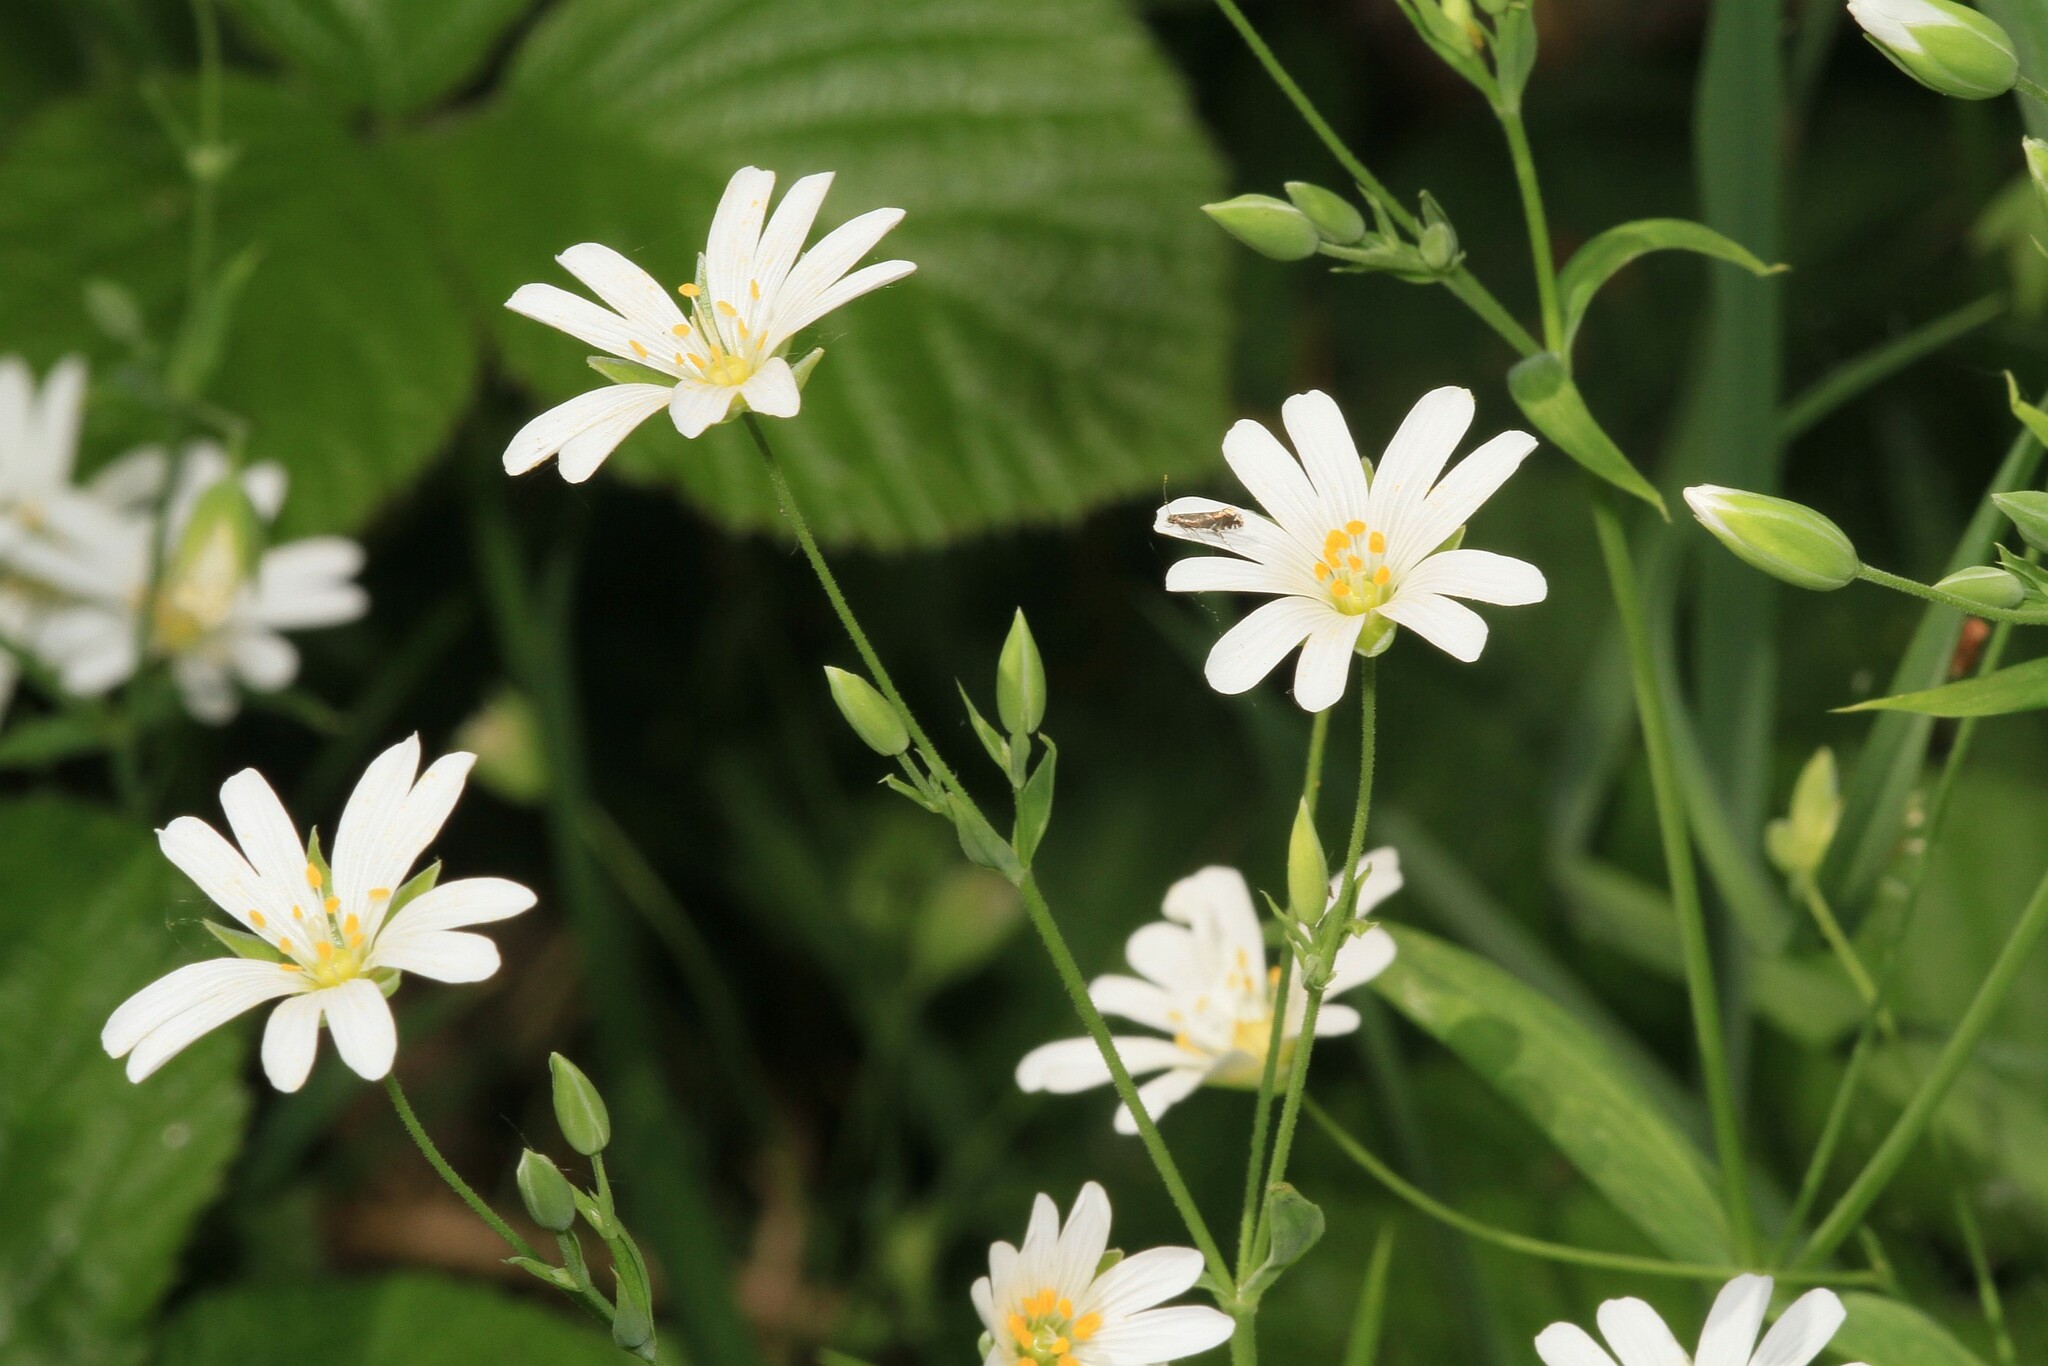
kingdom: Plantae
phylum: Tracheophyta
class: Magnoliopsida
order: Caryophyllales
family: Caryophyllaceae
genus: Rabelera
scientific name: Rabelera holostea
